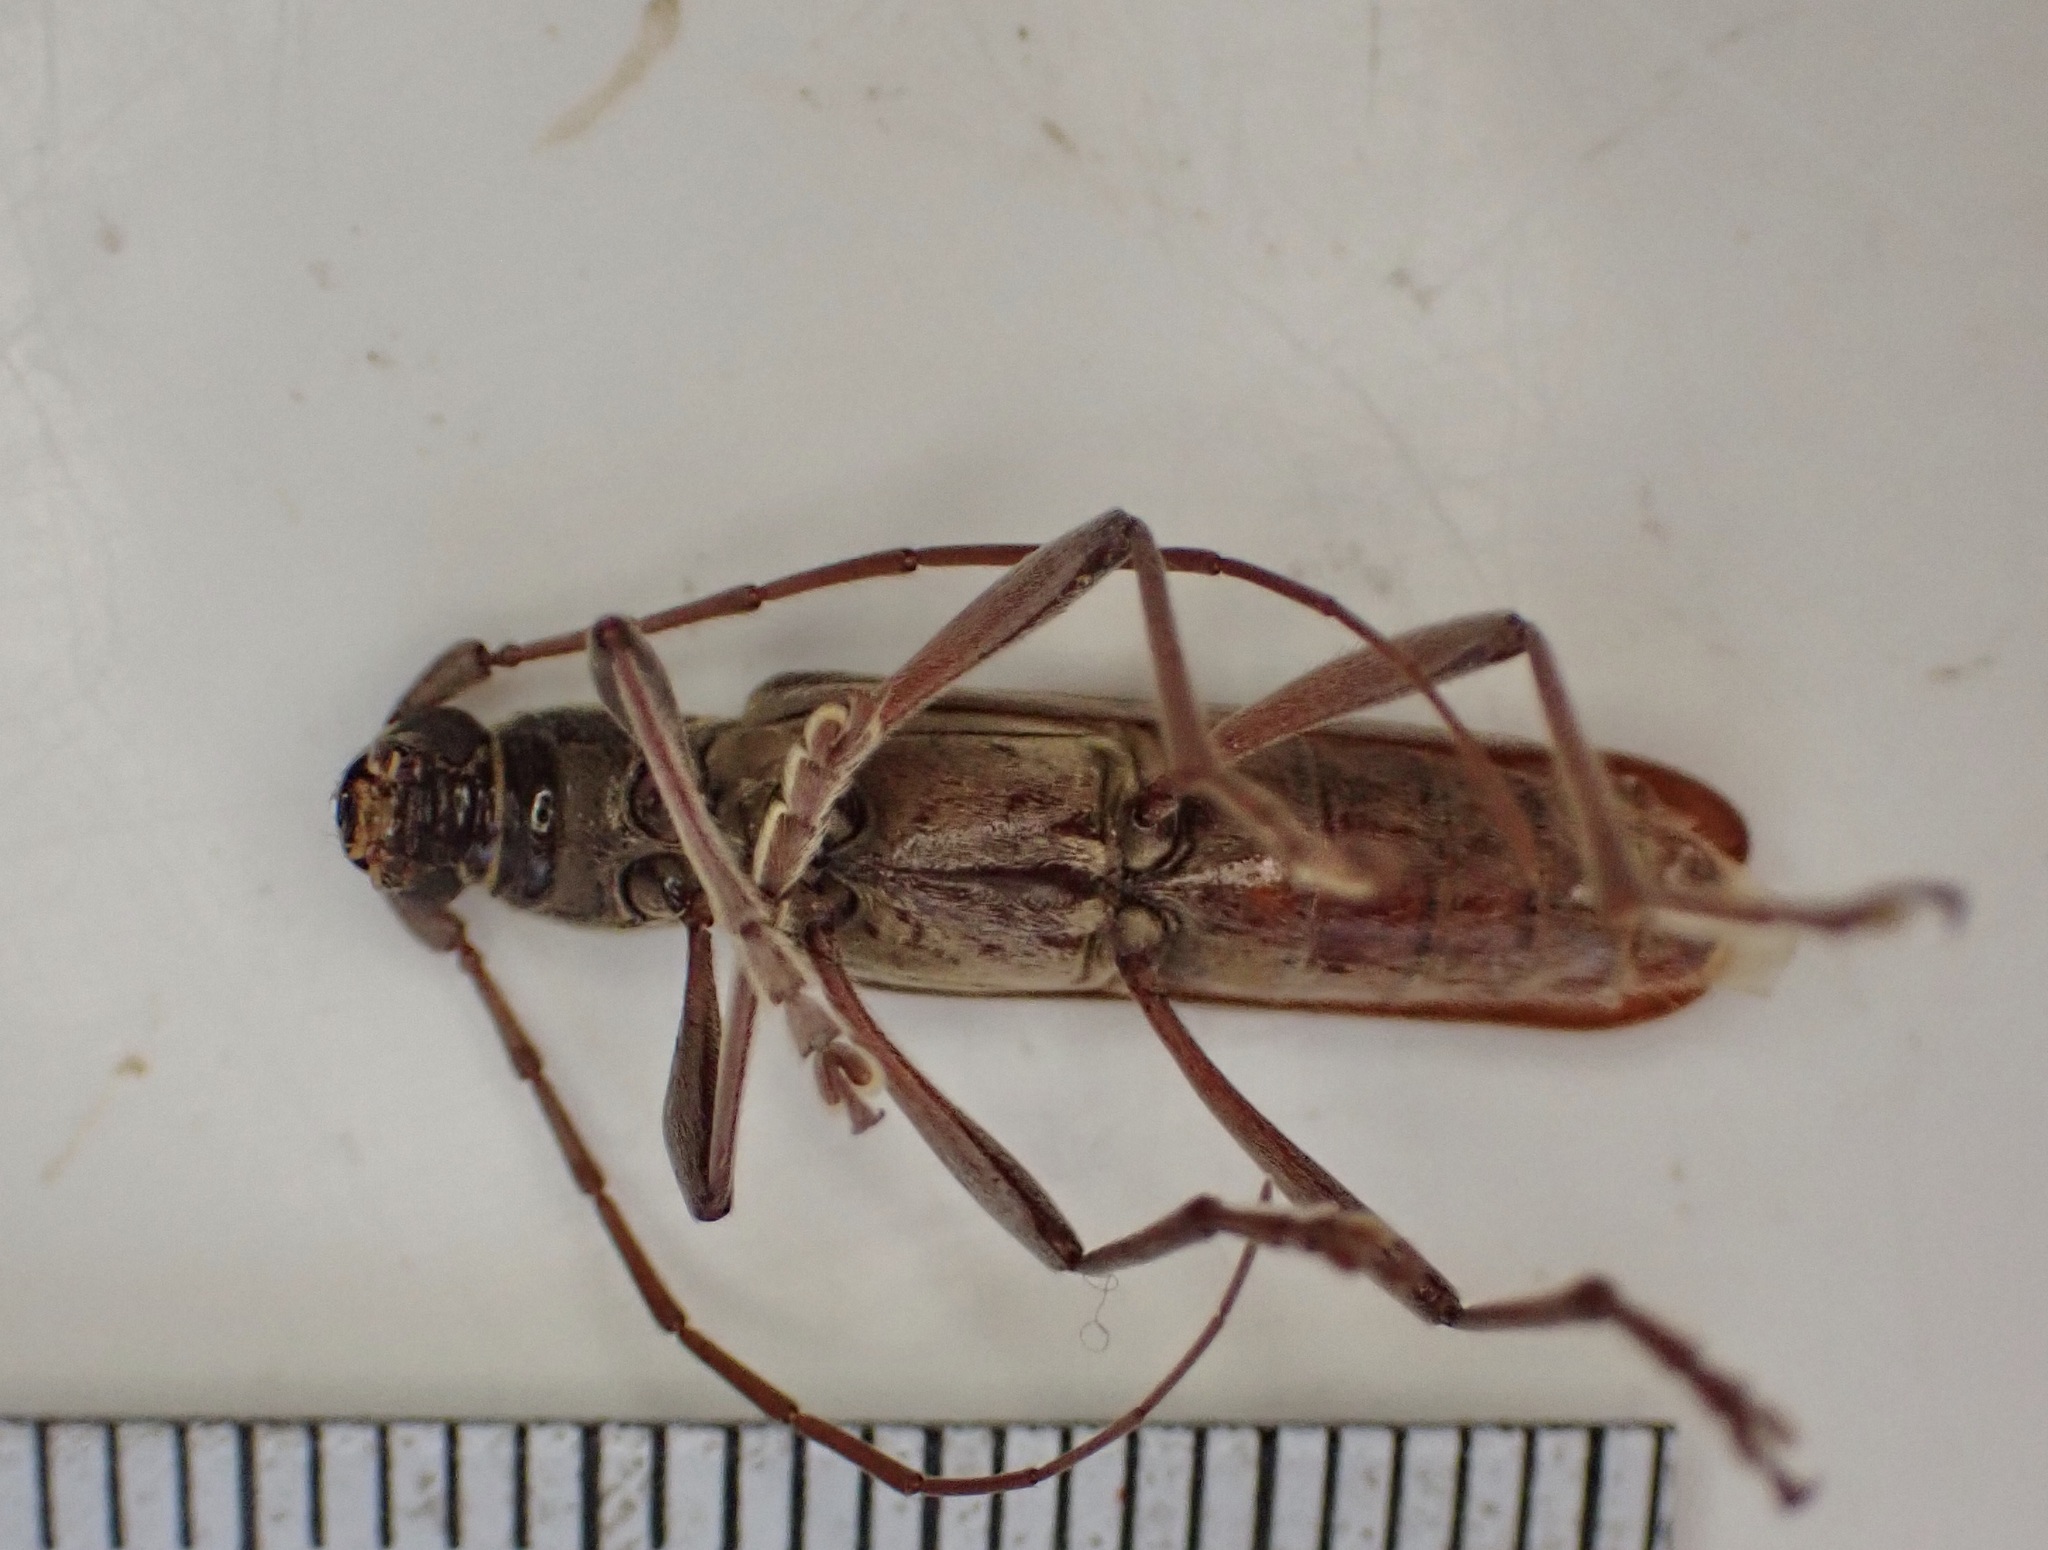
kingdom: Animalia
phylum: Arthropoda
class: Insecta
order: Coleoptera
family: Cerambycidae
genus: Oemona
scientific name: Oemona hirta
